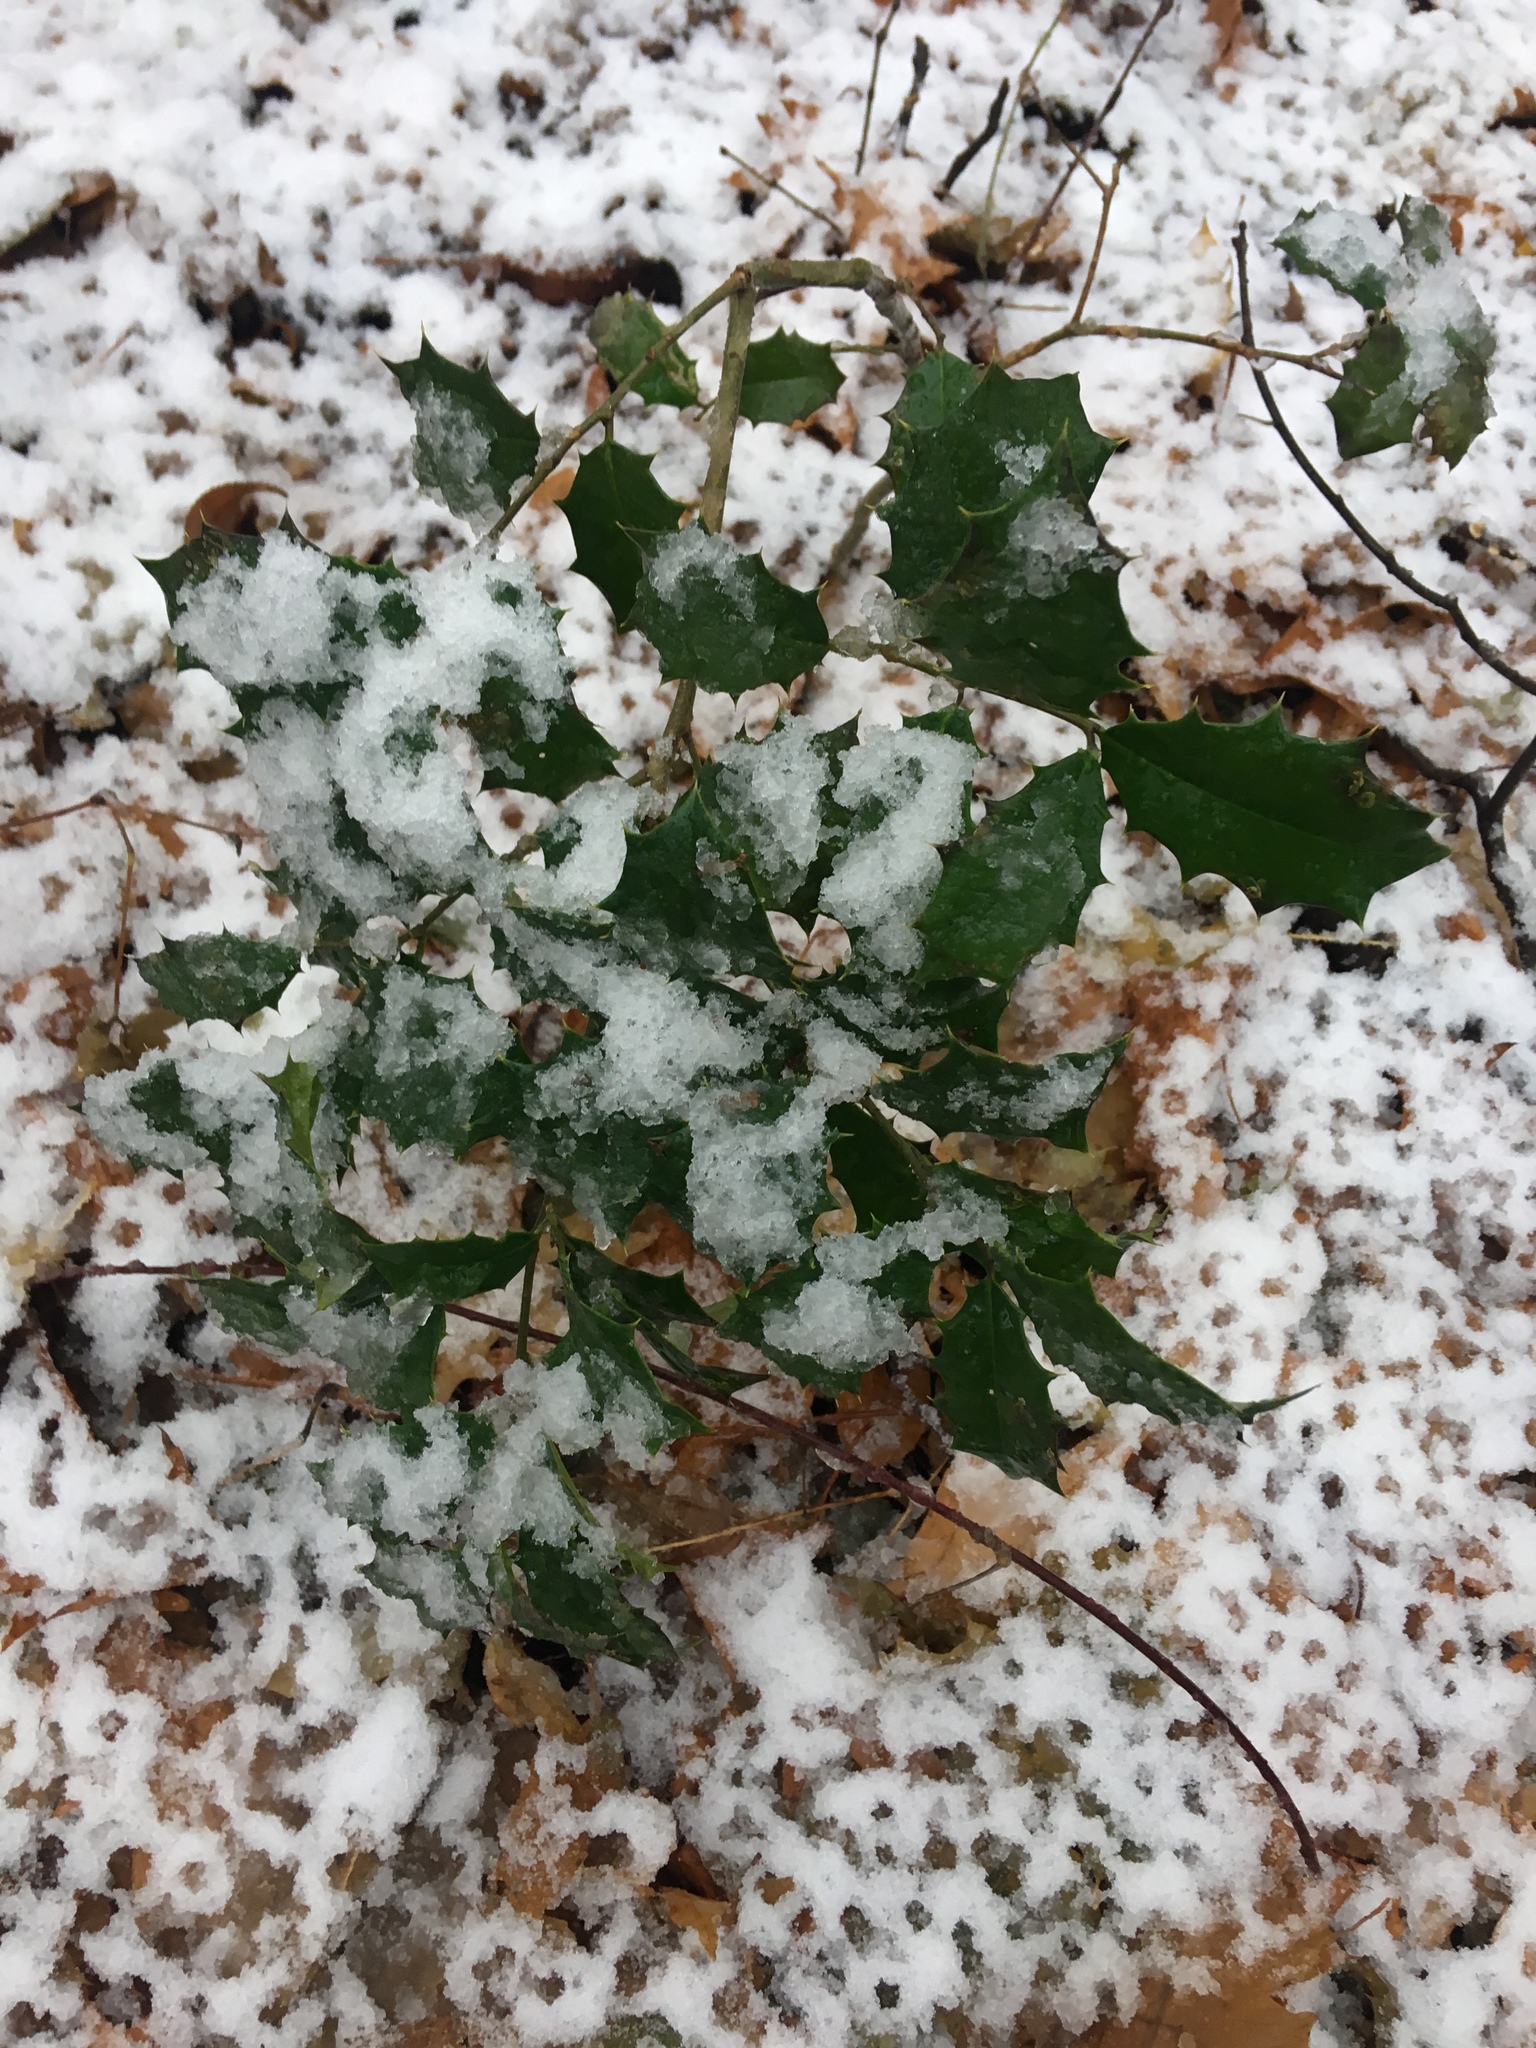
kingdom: Plantae
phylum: Tracheophyta
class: Magnoliopsida
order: Aquifoliales
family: Aquifoliaceae
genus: Ilex
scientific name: Ilex opaca
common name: American holly
